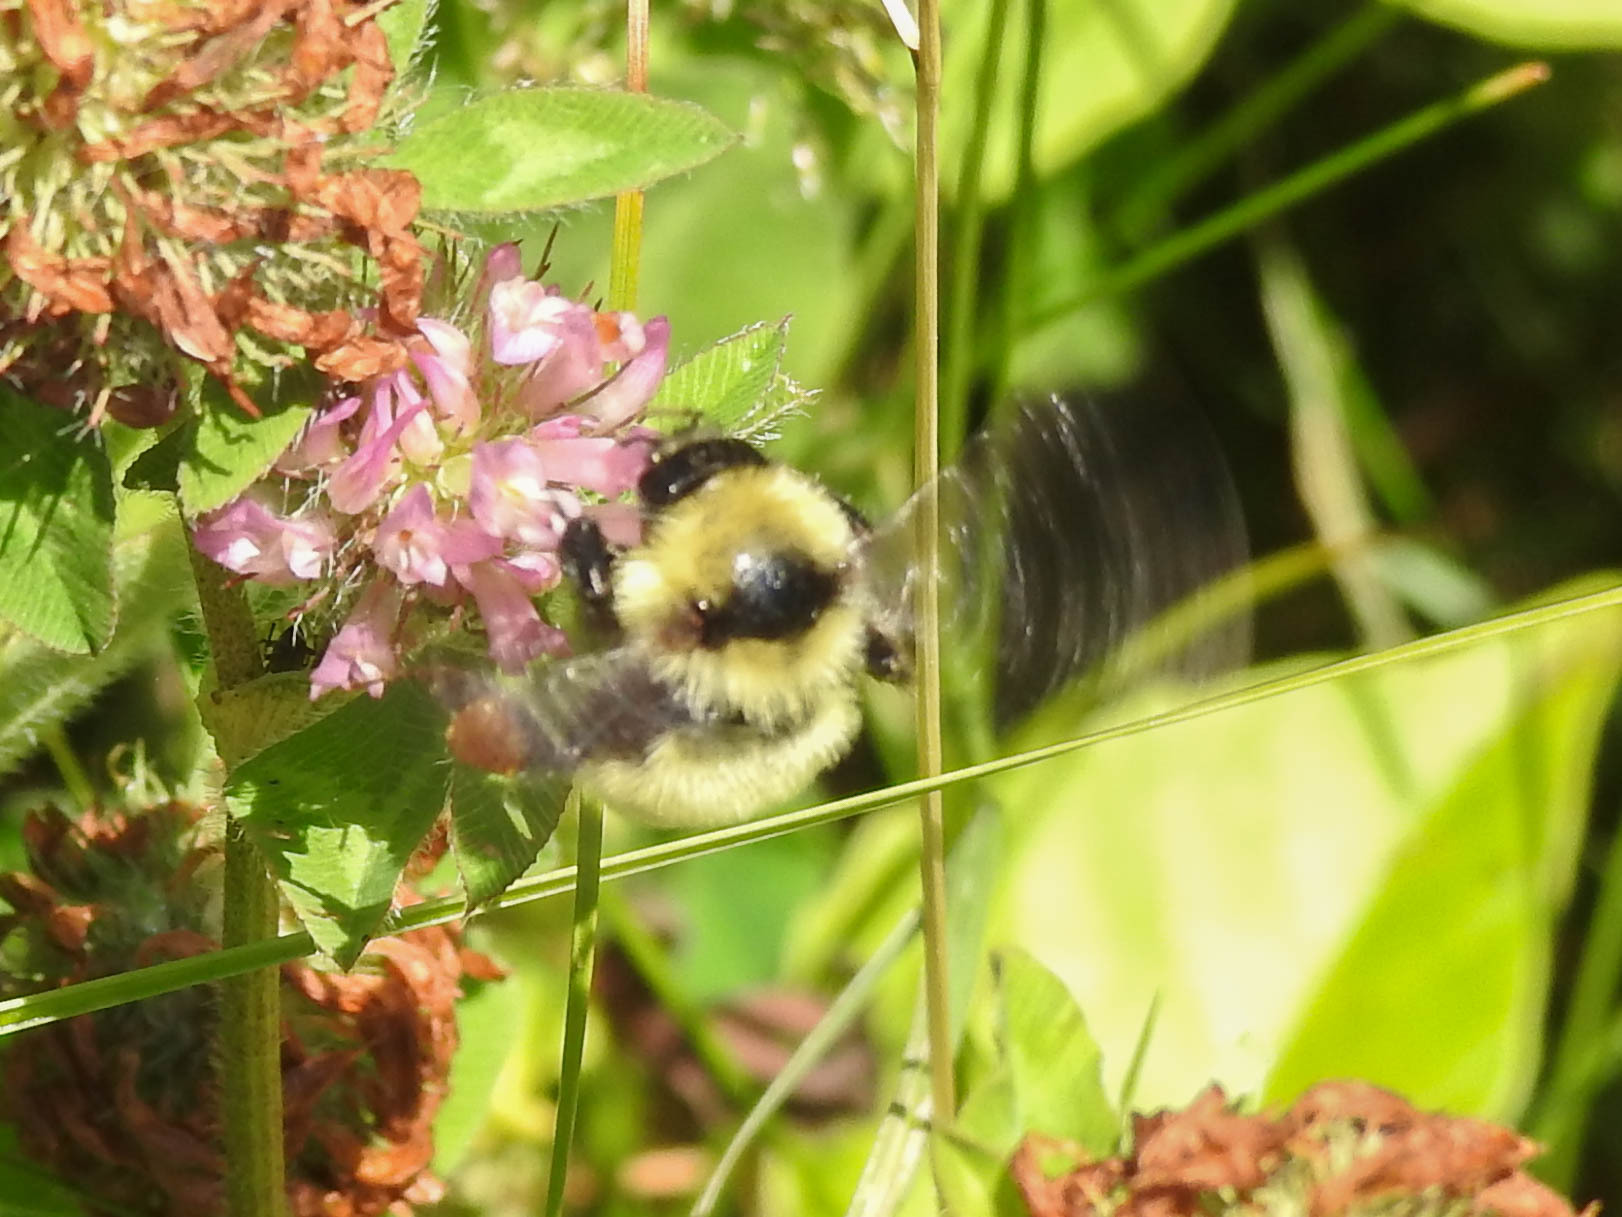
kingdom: Animalia
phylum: Arthropoda
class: Insecta
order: Hymenoptera
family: Apidae
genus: Bombus
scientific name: Bombus fervidus
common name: Yellow bumble bee
